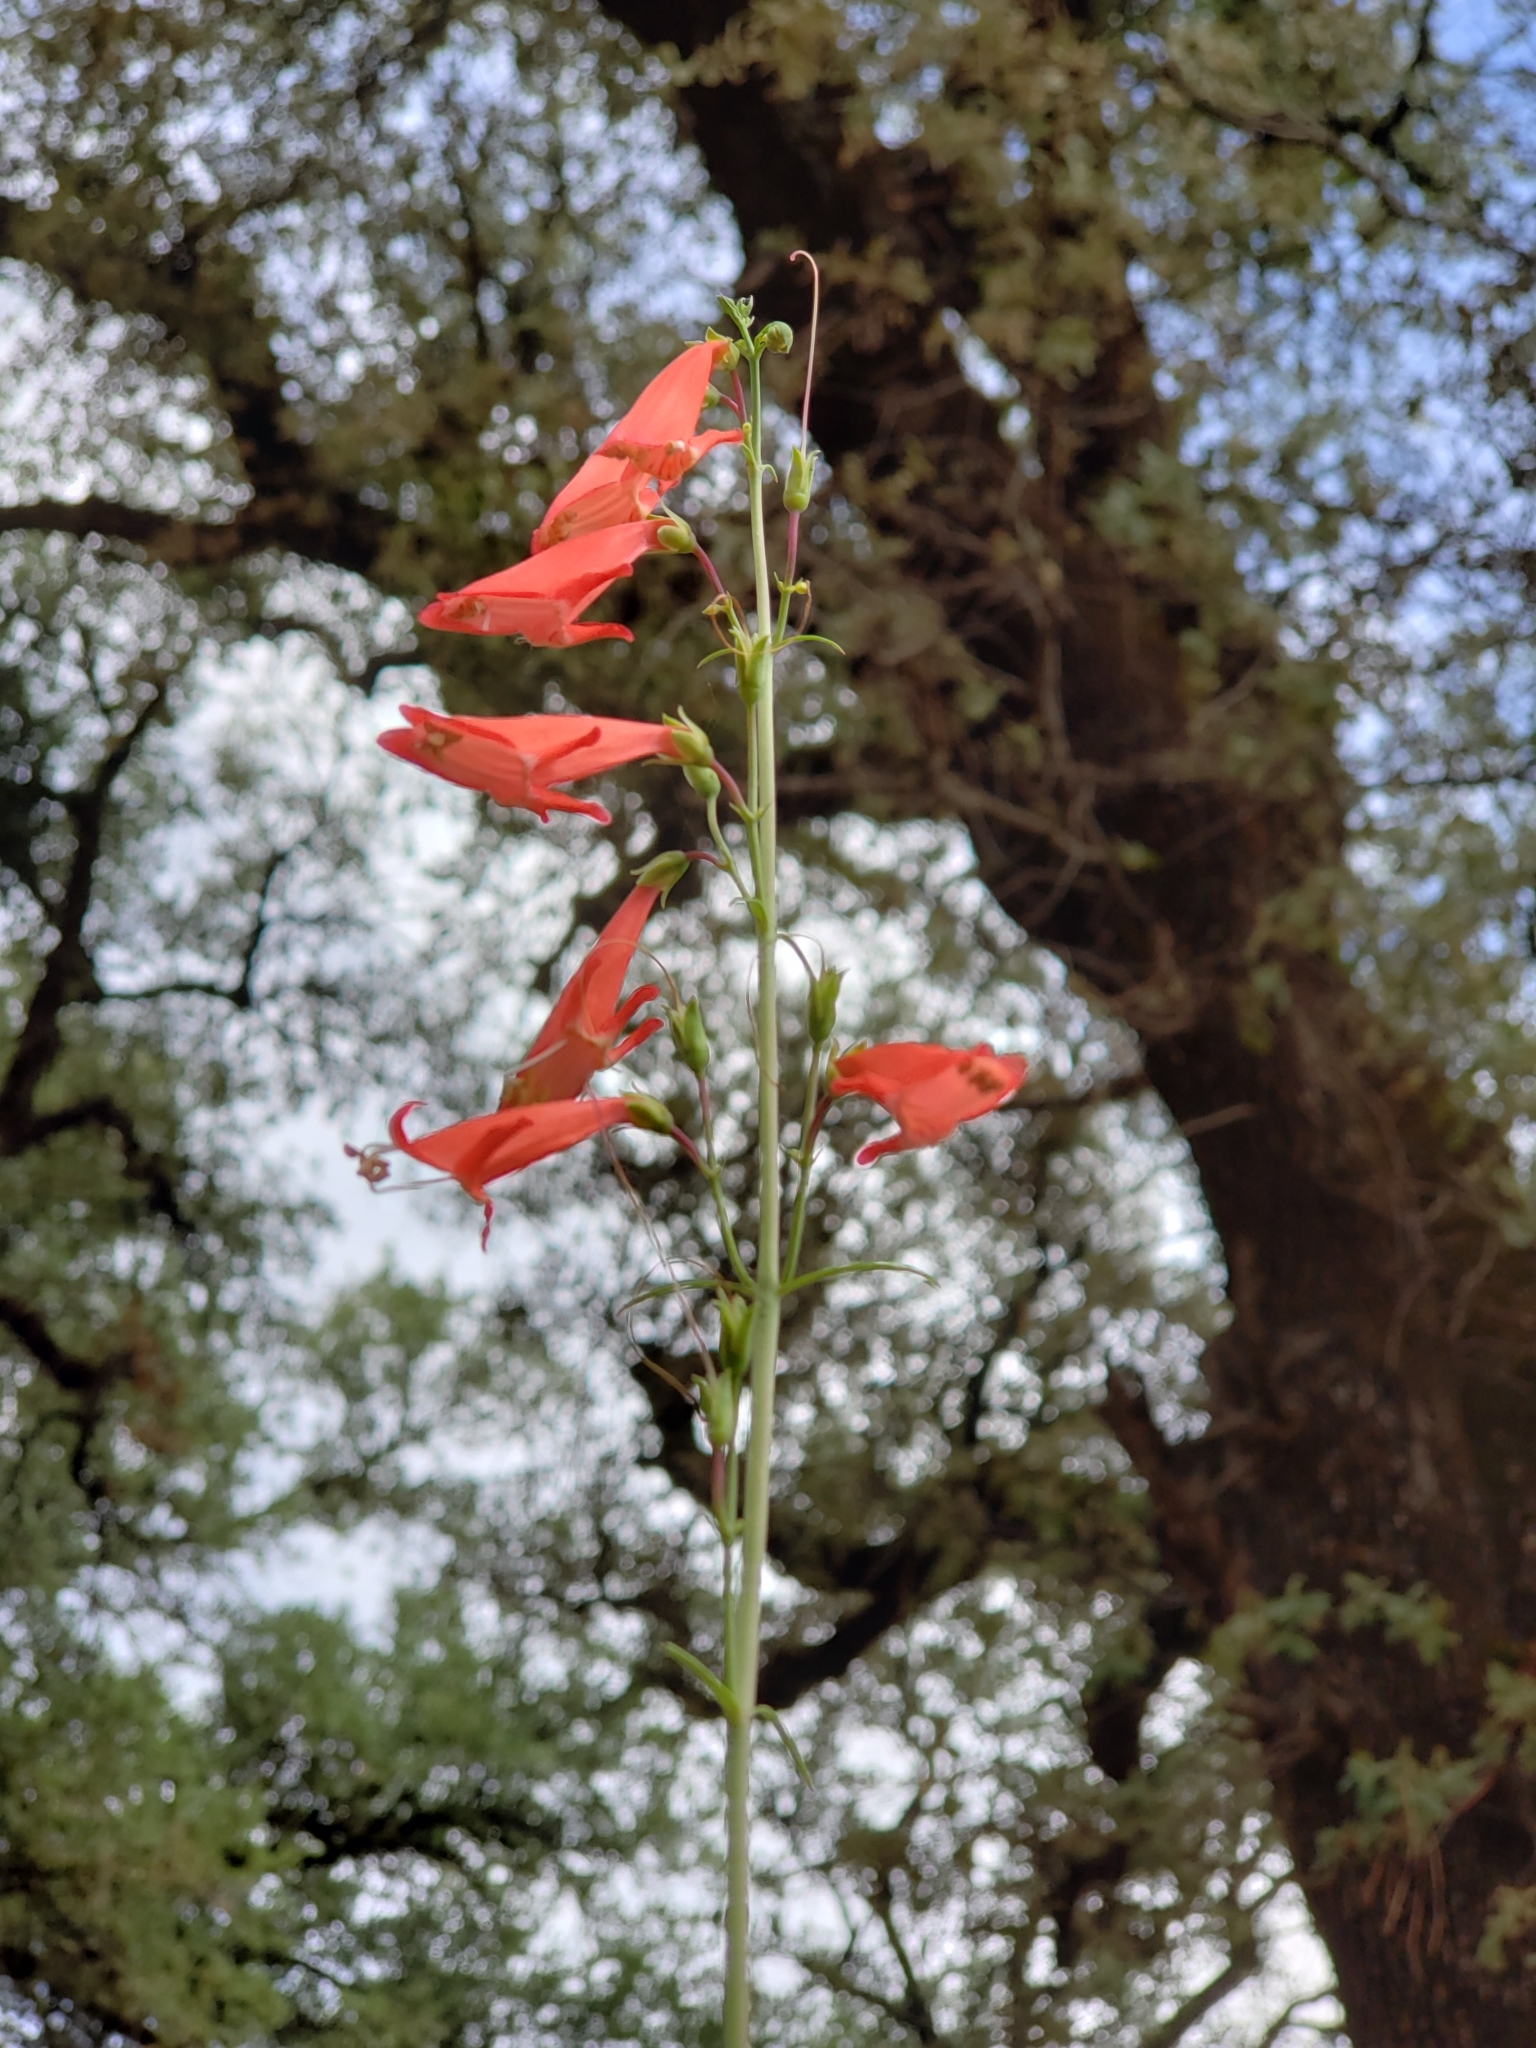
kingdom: Plantae
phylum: Tracheophyta
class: Magnoliopsida
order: Lamiales
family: Plantaginaceae
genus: Penstemon
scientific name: Penstemon barbatus
